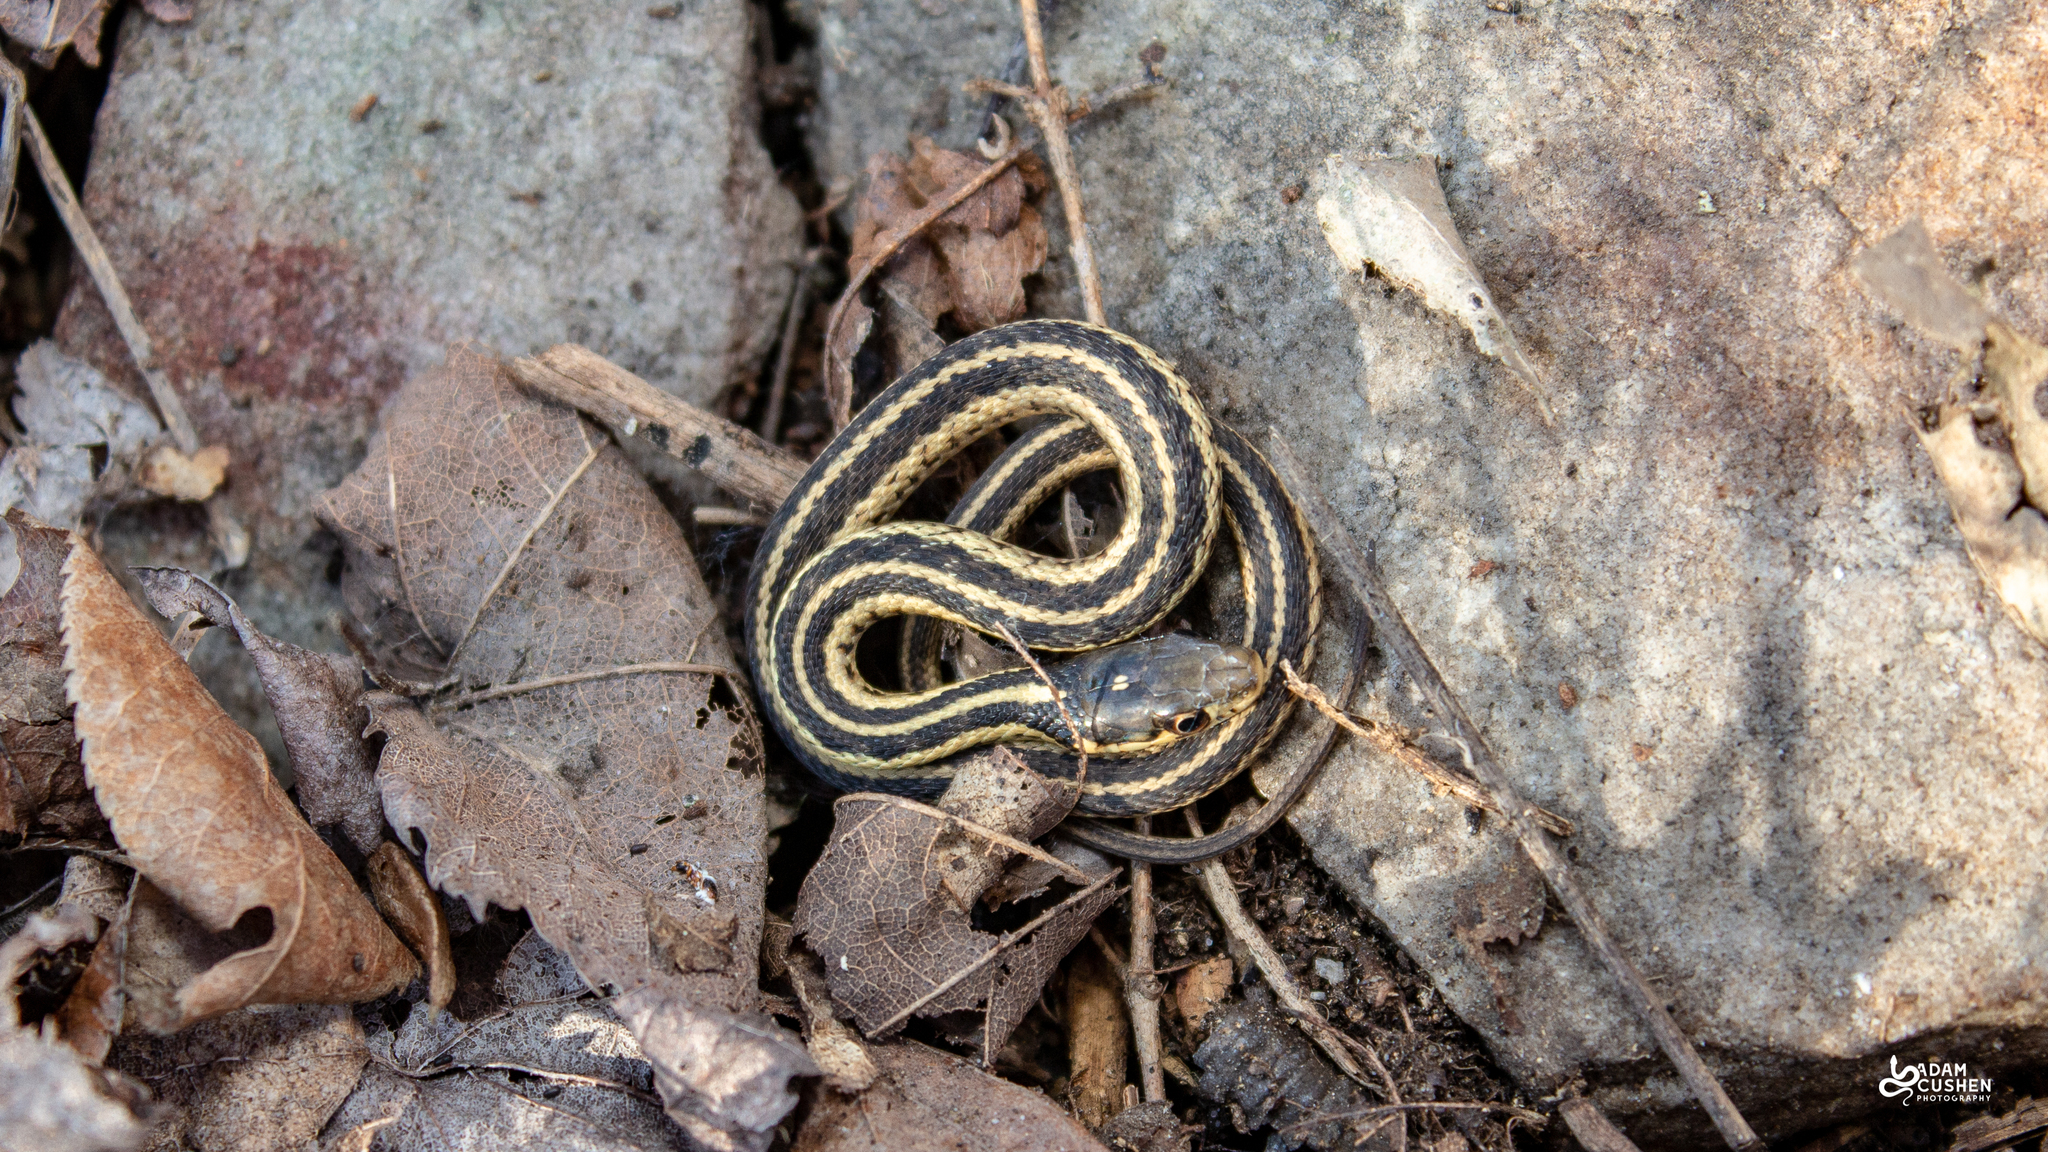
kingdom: Animalia
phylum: Chordata
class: Squamata
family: Colubridae
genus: Thamnophis
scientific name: Thamnophis sirtalis
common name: Common garter snake
